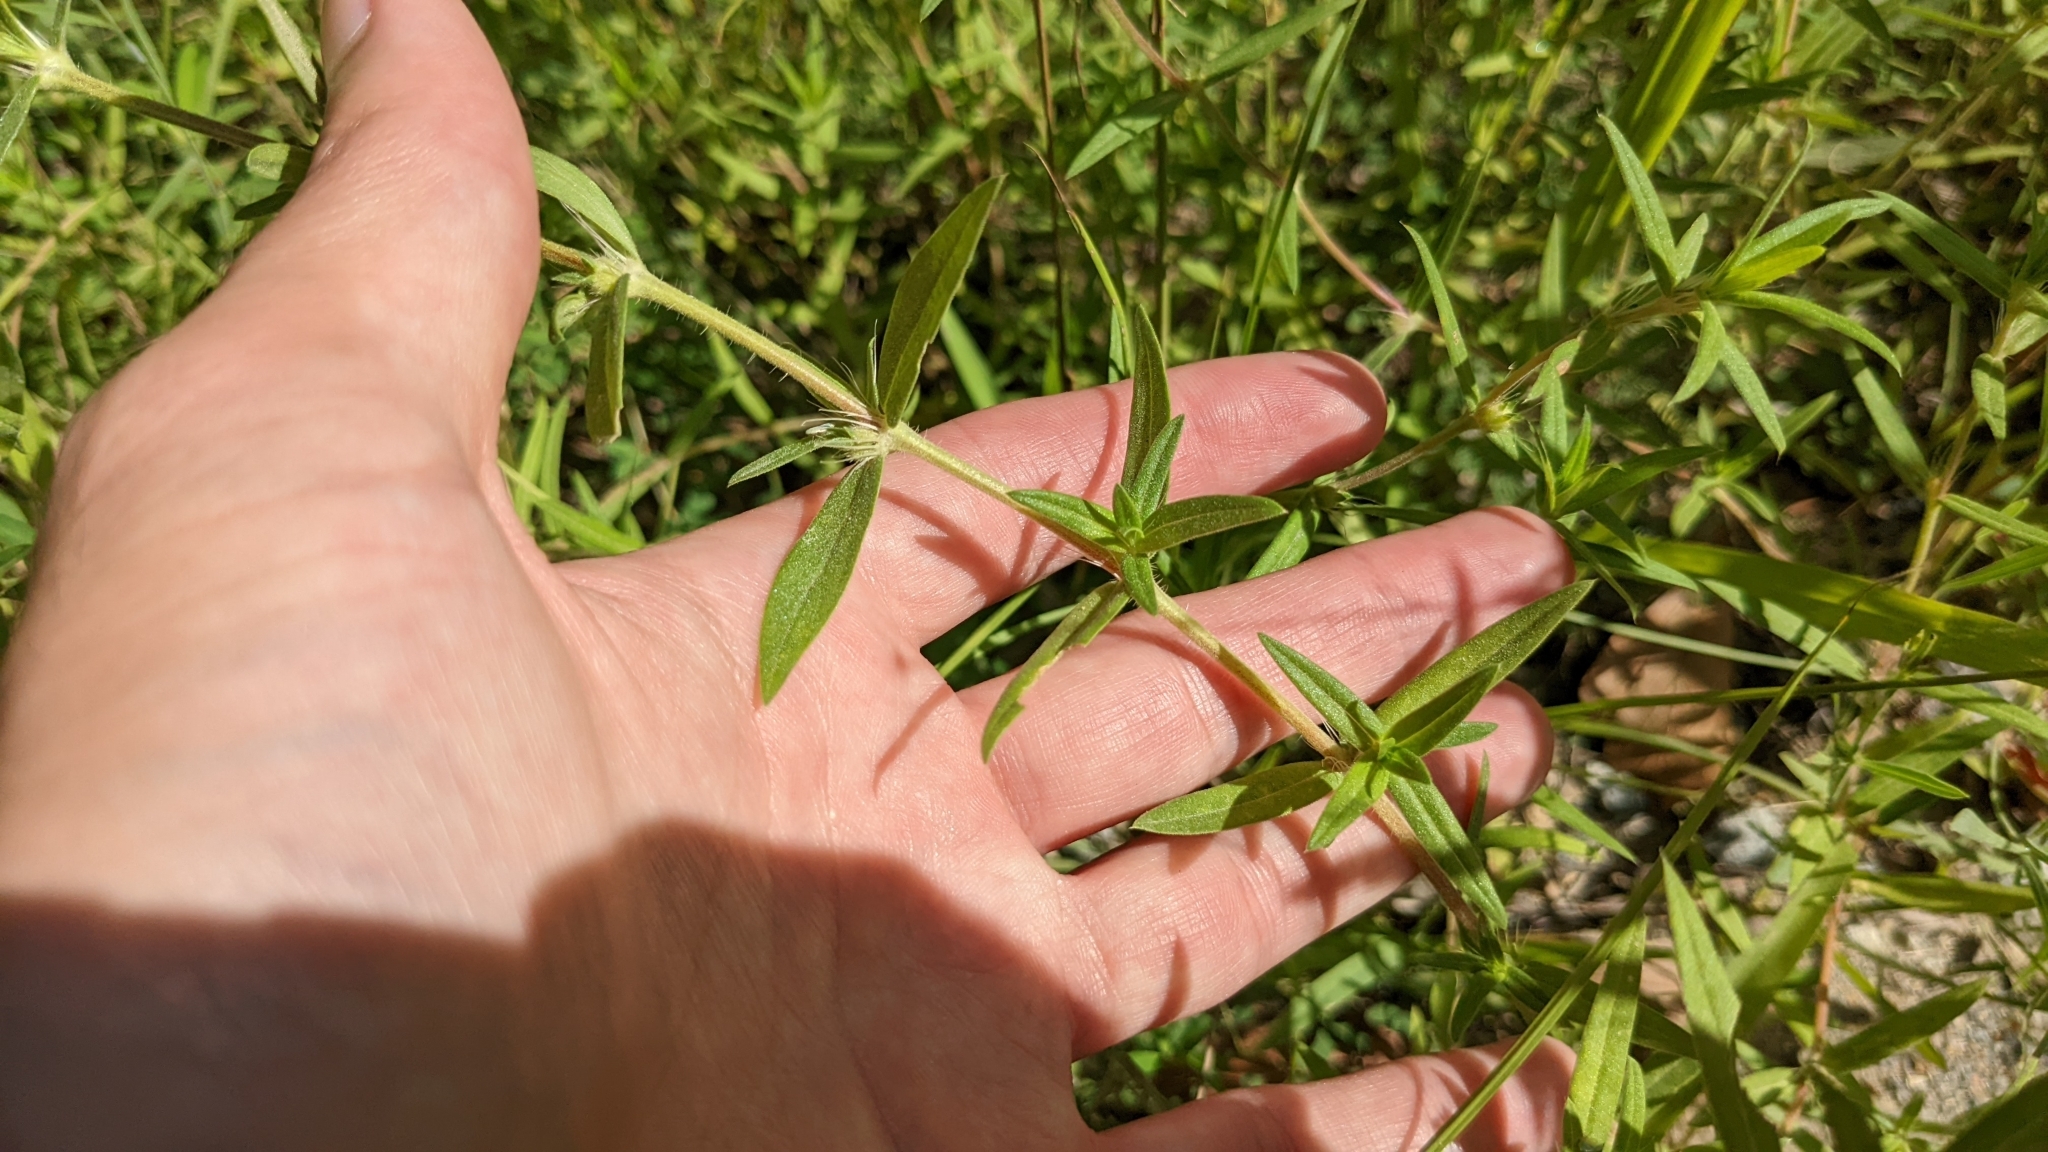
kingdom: Plantae
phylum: Tracheophyta
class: Magnoliopsida
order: Gentianales
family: Rubiaceae
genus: Hexasepalum
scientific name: Hexasepalum teres
